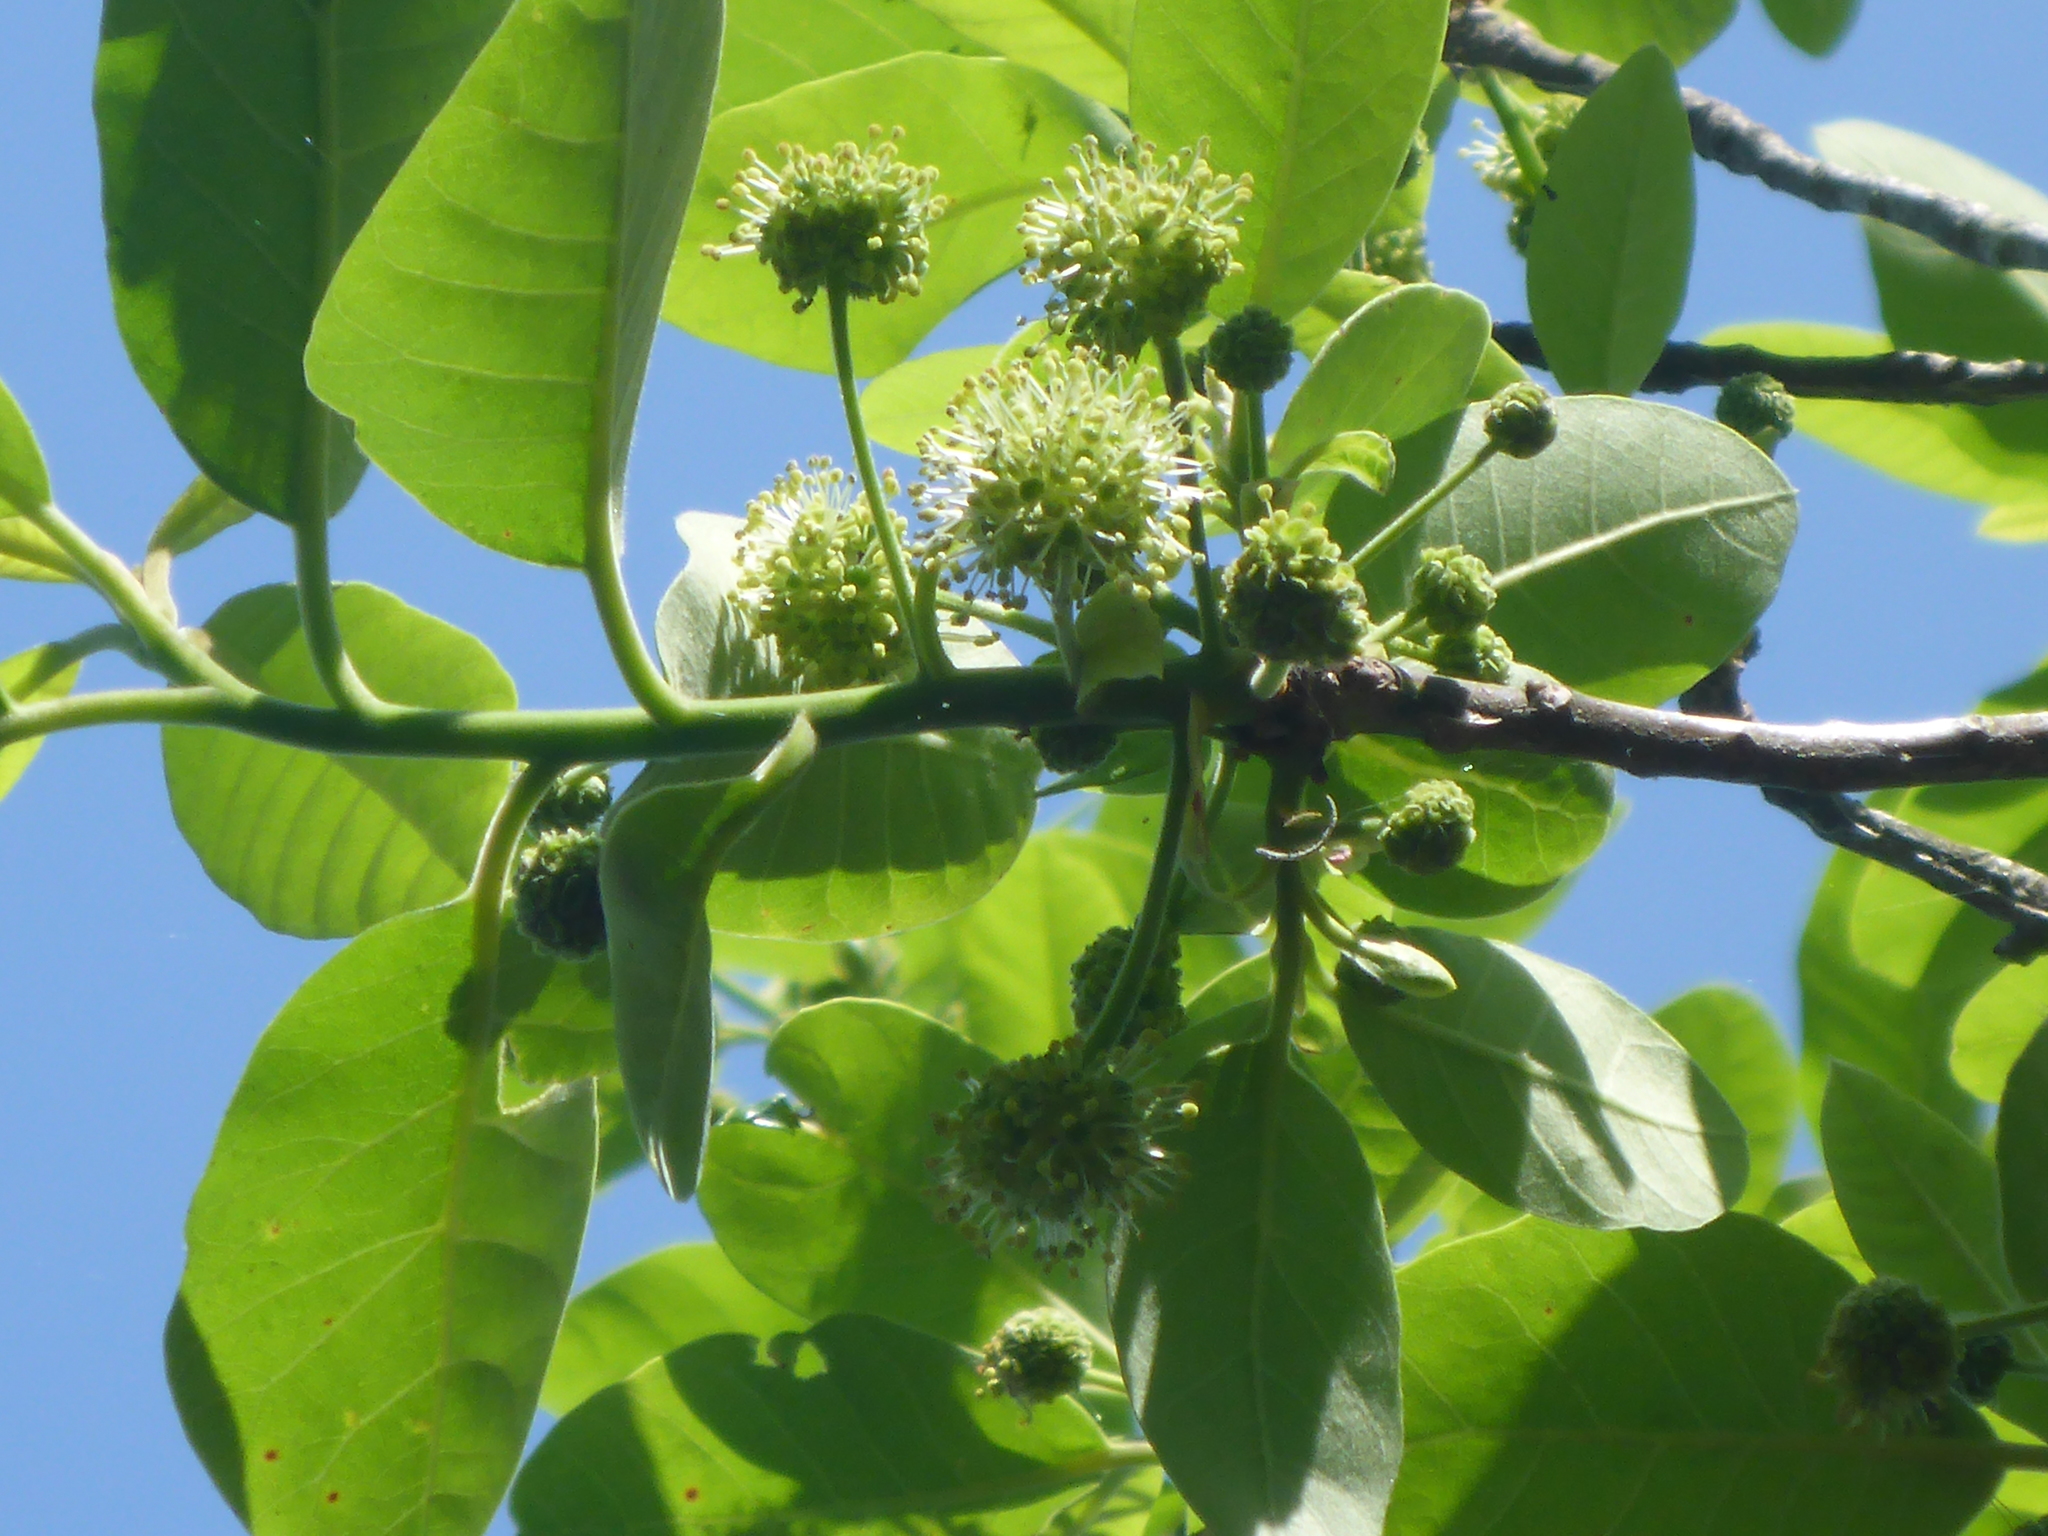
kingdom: Plantae
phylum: Tracheophyta
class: Magnoliopsida
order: Cornales
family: Nyssaceae
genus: Nyssa
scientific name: Nyssa ogeche
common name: Ogeechee tupelo
